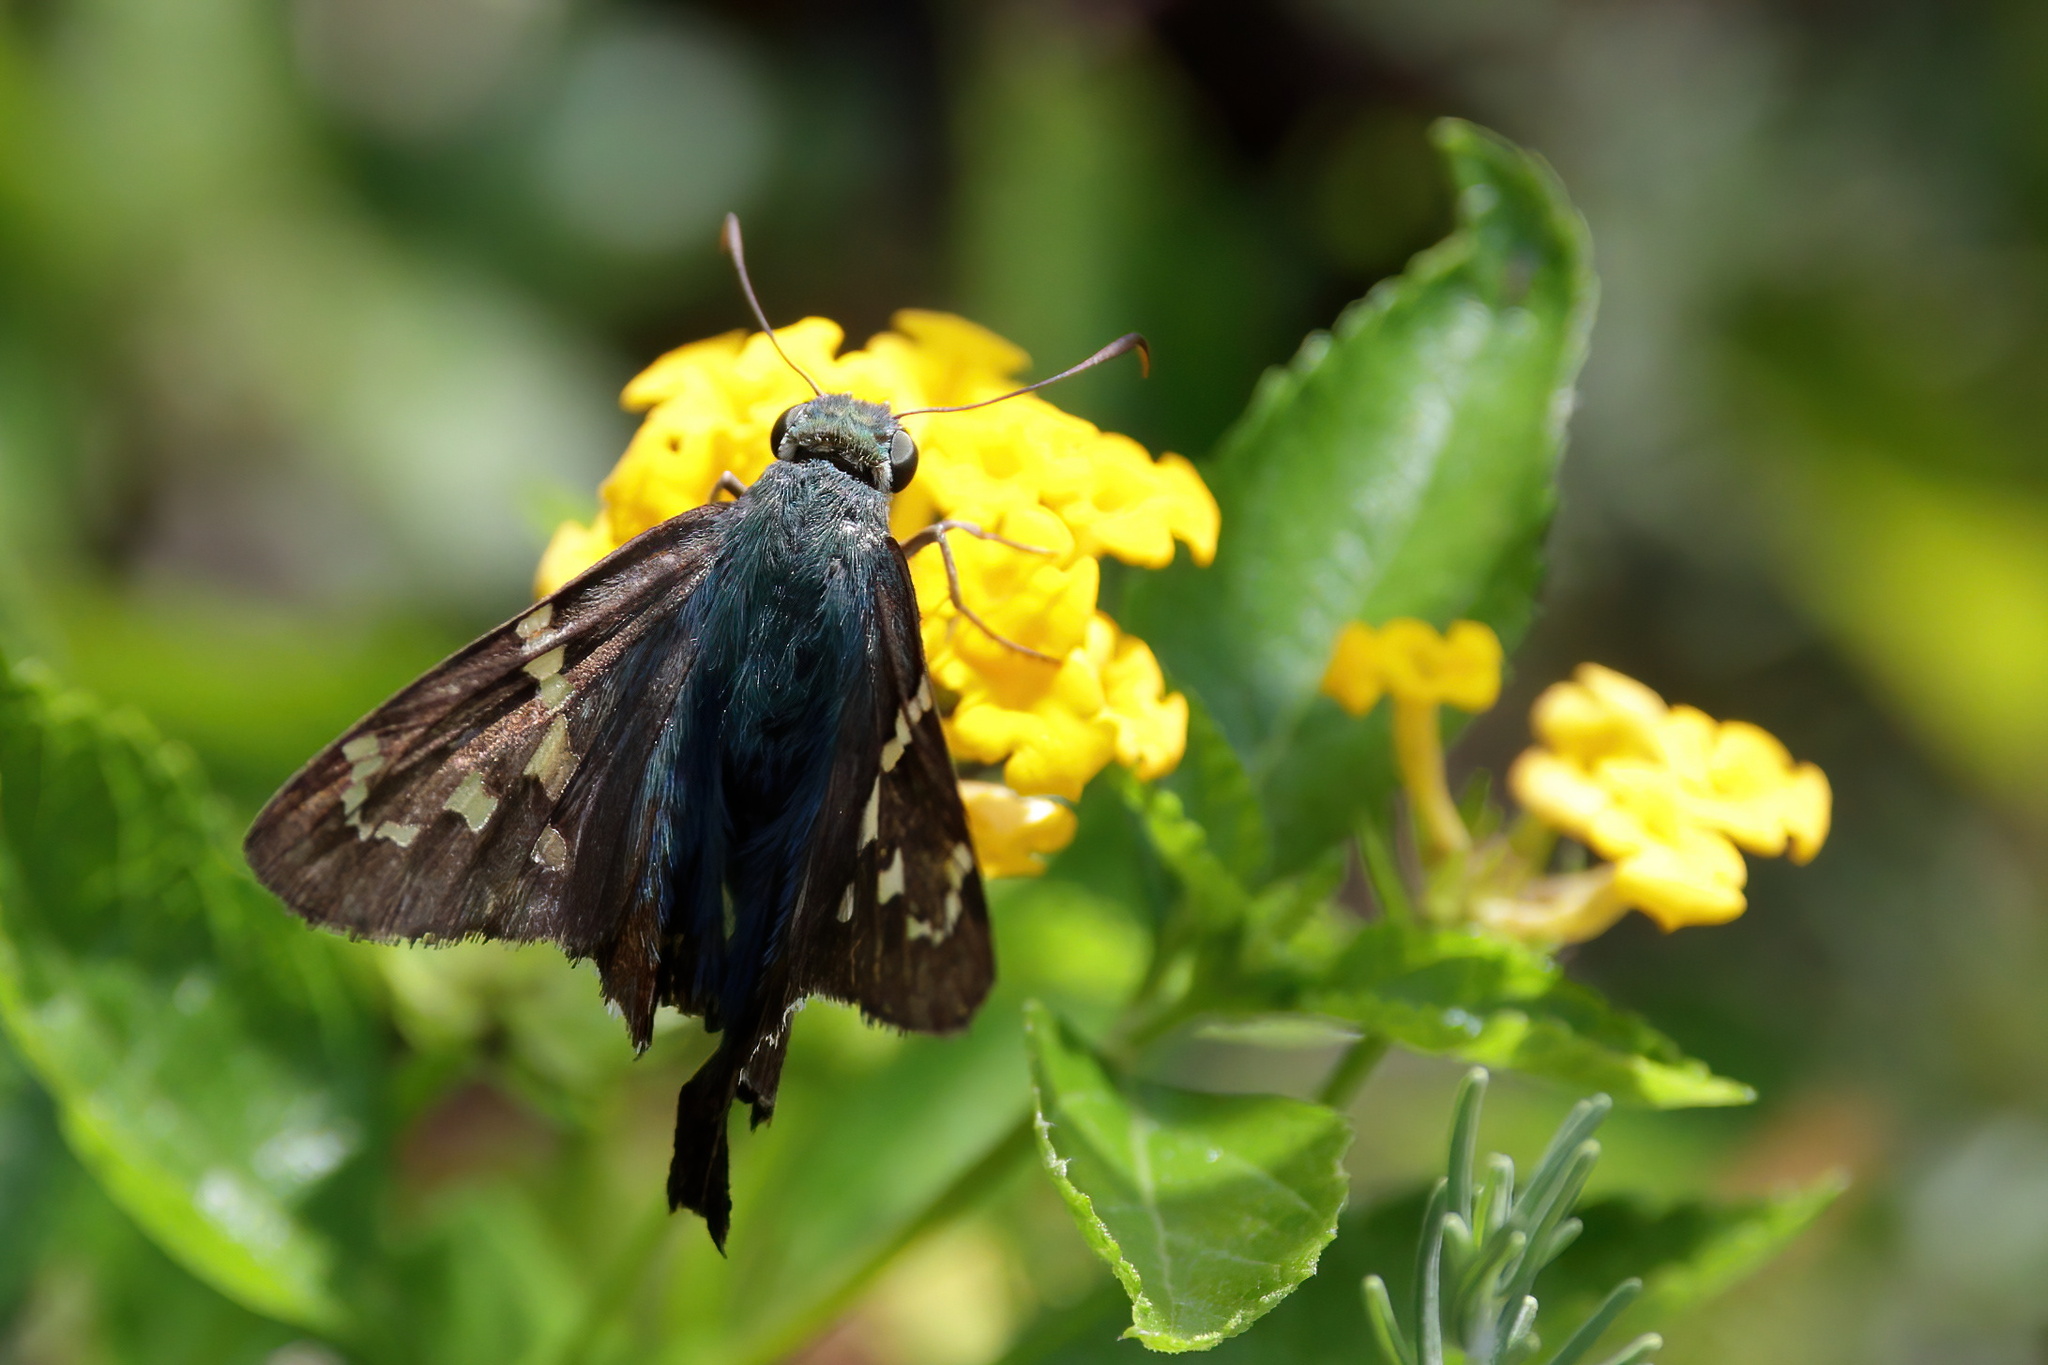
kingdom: Animalia
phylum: Arthropoda
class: Insecta
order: Lepidoptera
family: Hesperiidae
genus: Urbanus
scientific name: Urbanus proteus
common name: Long-tailed skipper
